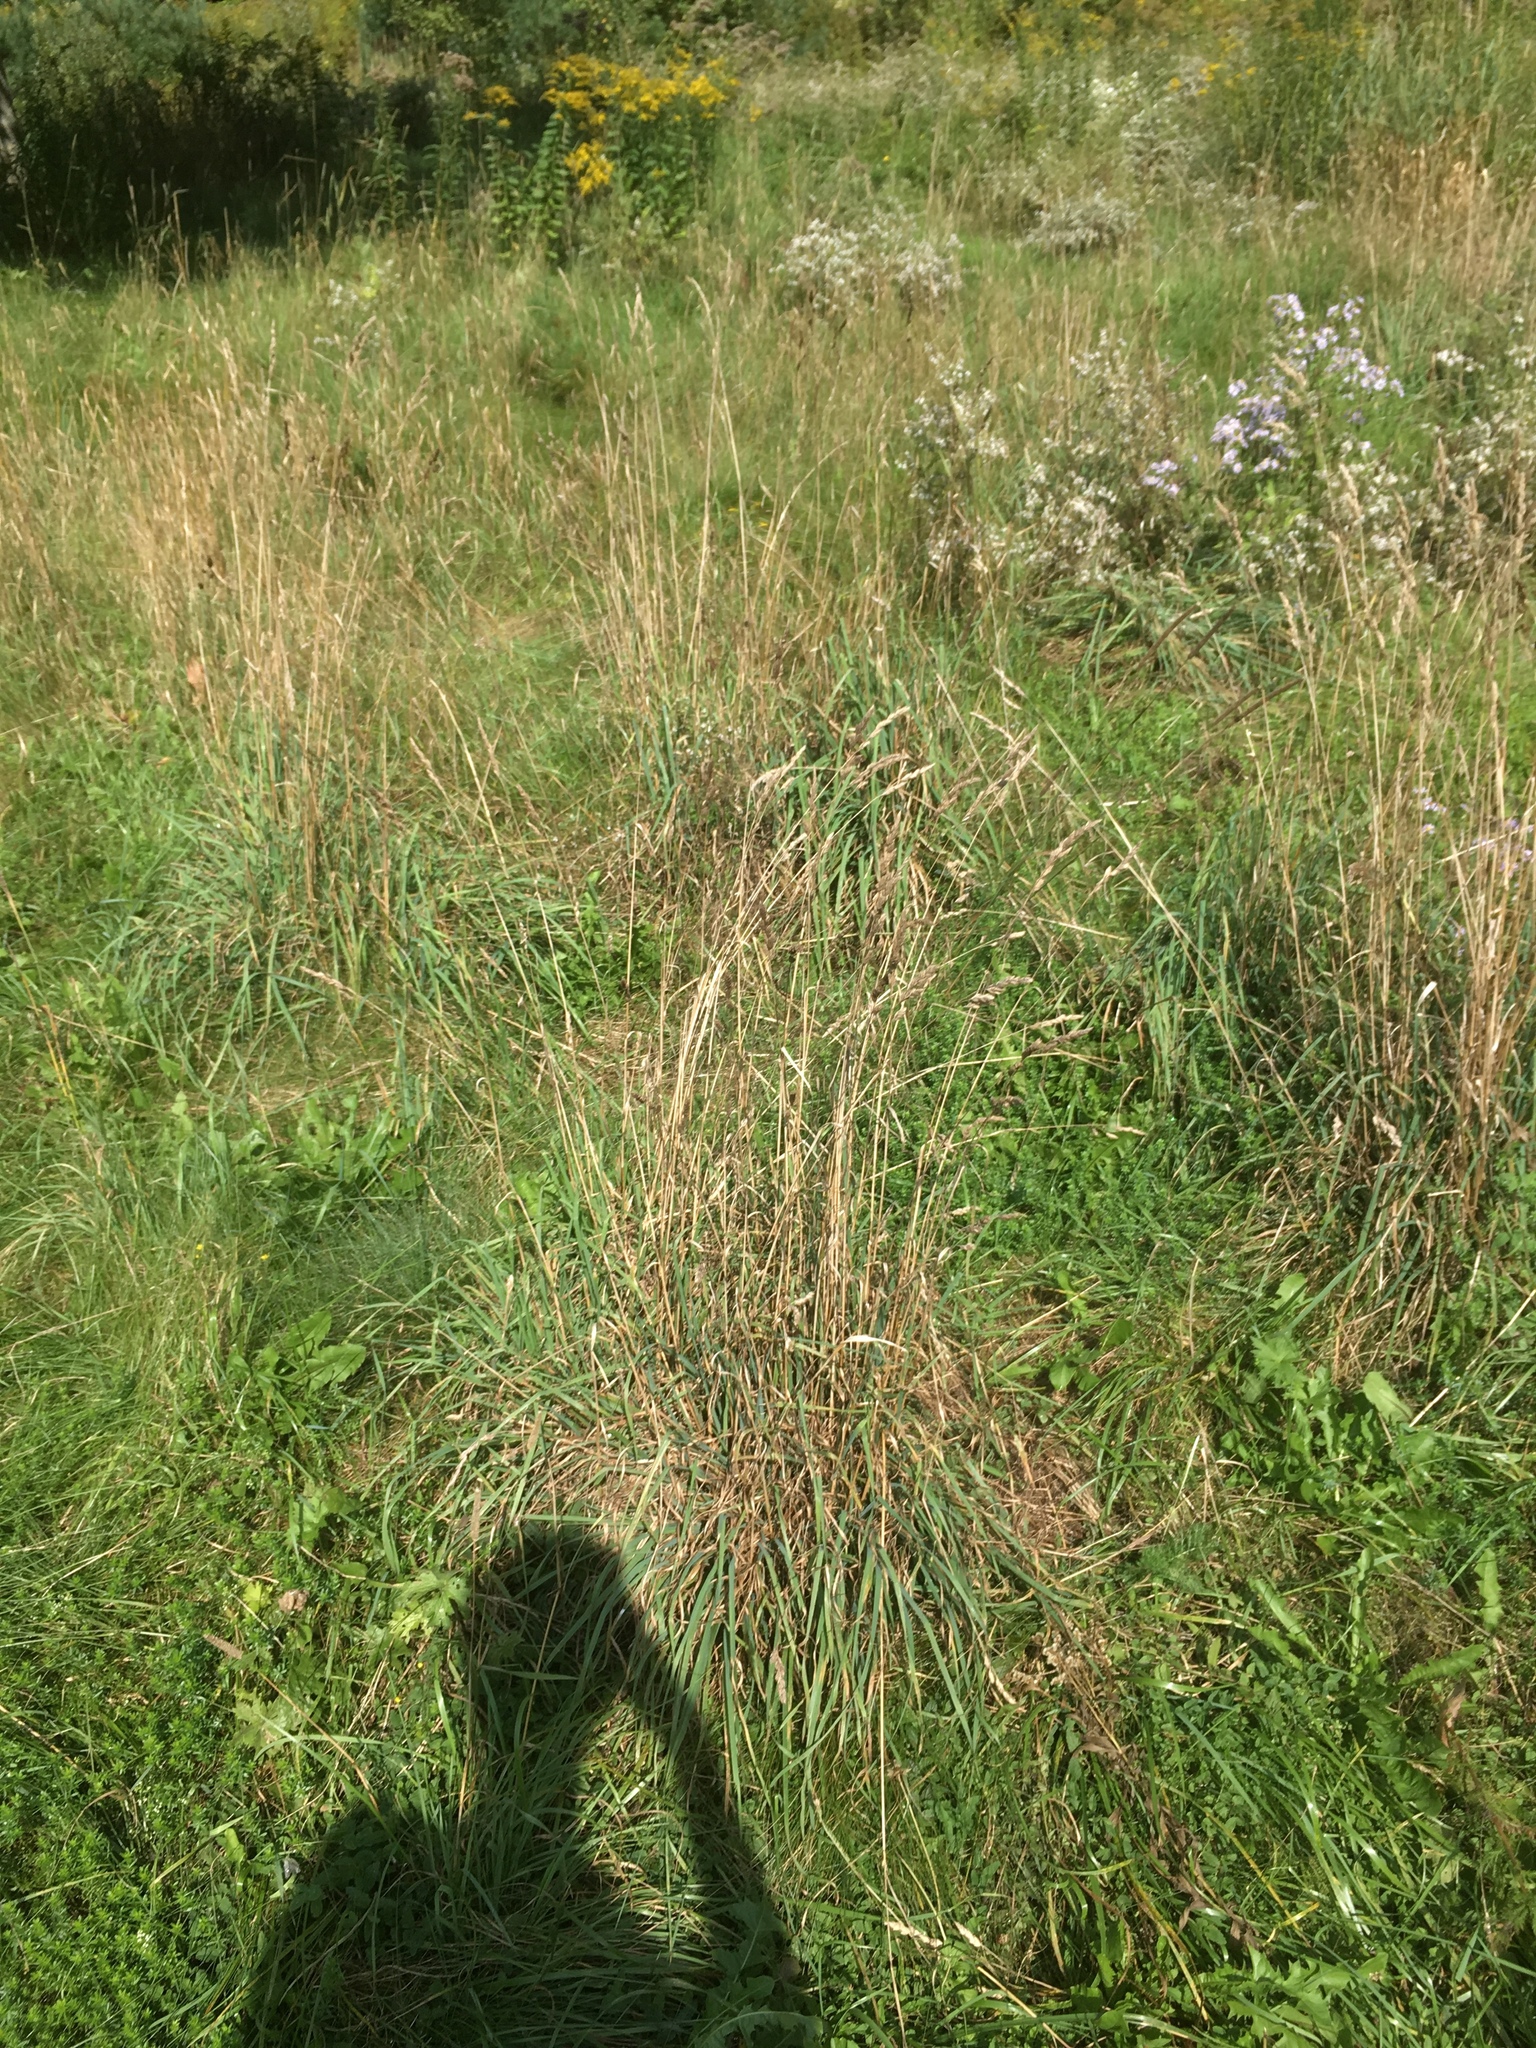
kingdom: Plantae
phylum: Tracheophyta
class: Liliopsida
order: Poales
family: Poaceae
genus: Dactylis
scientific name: Dactylis glomerata
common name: Orchardgrass
